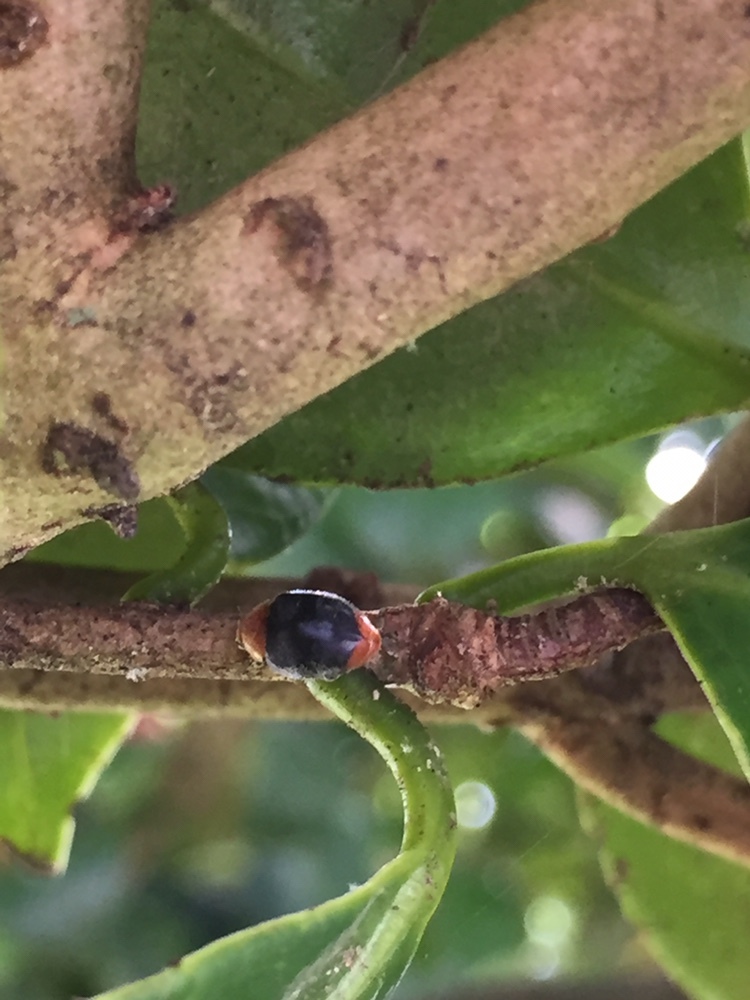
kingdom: Animalia
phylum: Arthropoda
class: Insecta
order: Coleoptera
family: Coccinellidae
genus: Cryptolaemus
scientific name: Cryptolaemus montrouzieri
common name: Mealybug destroyer
